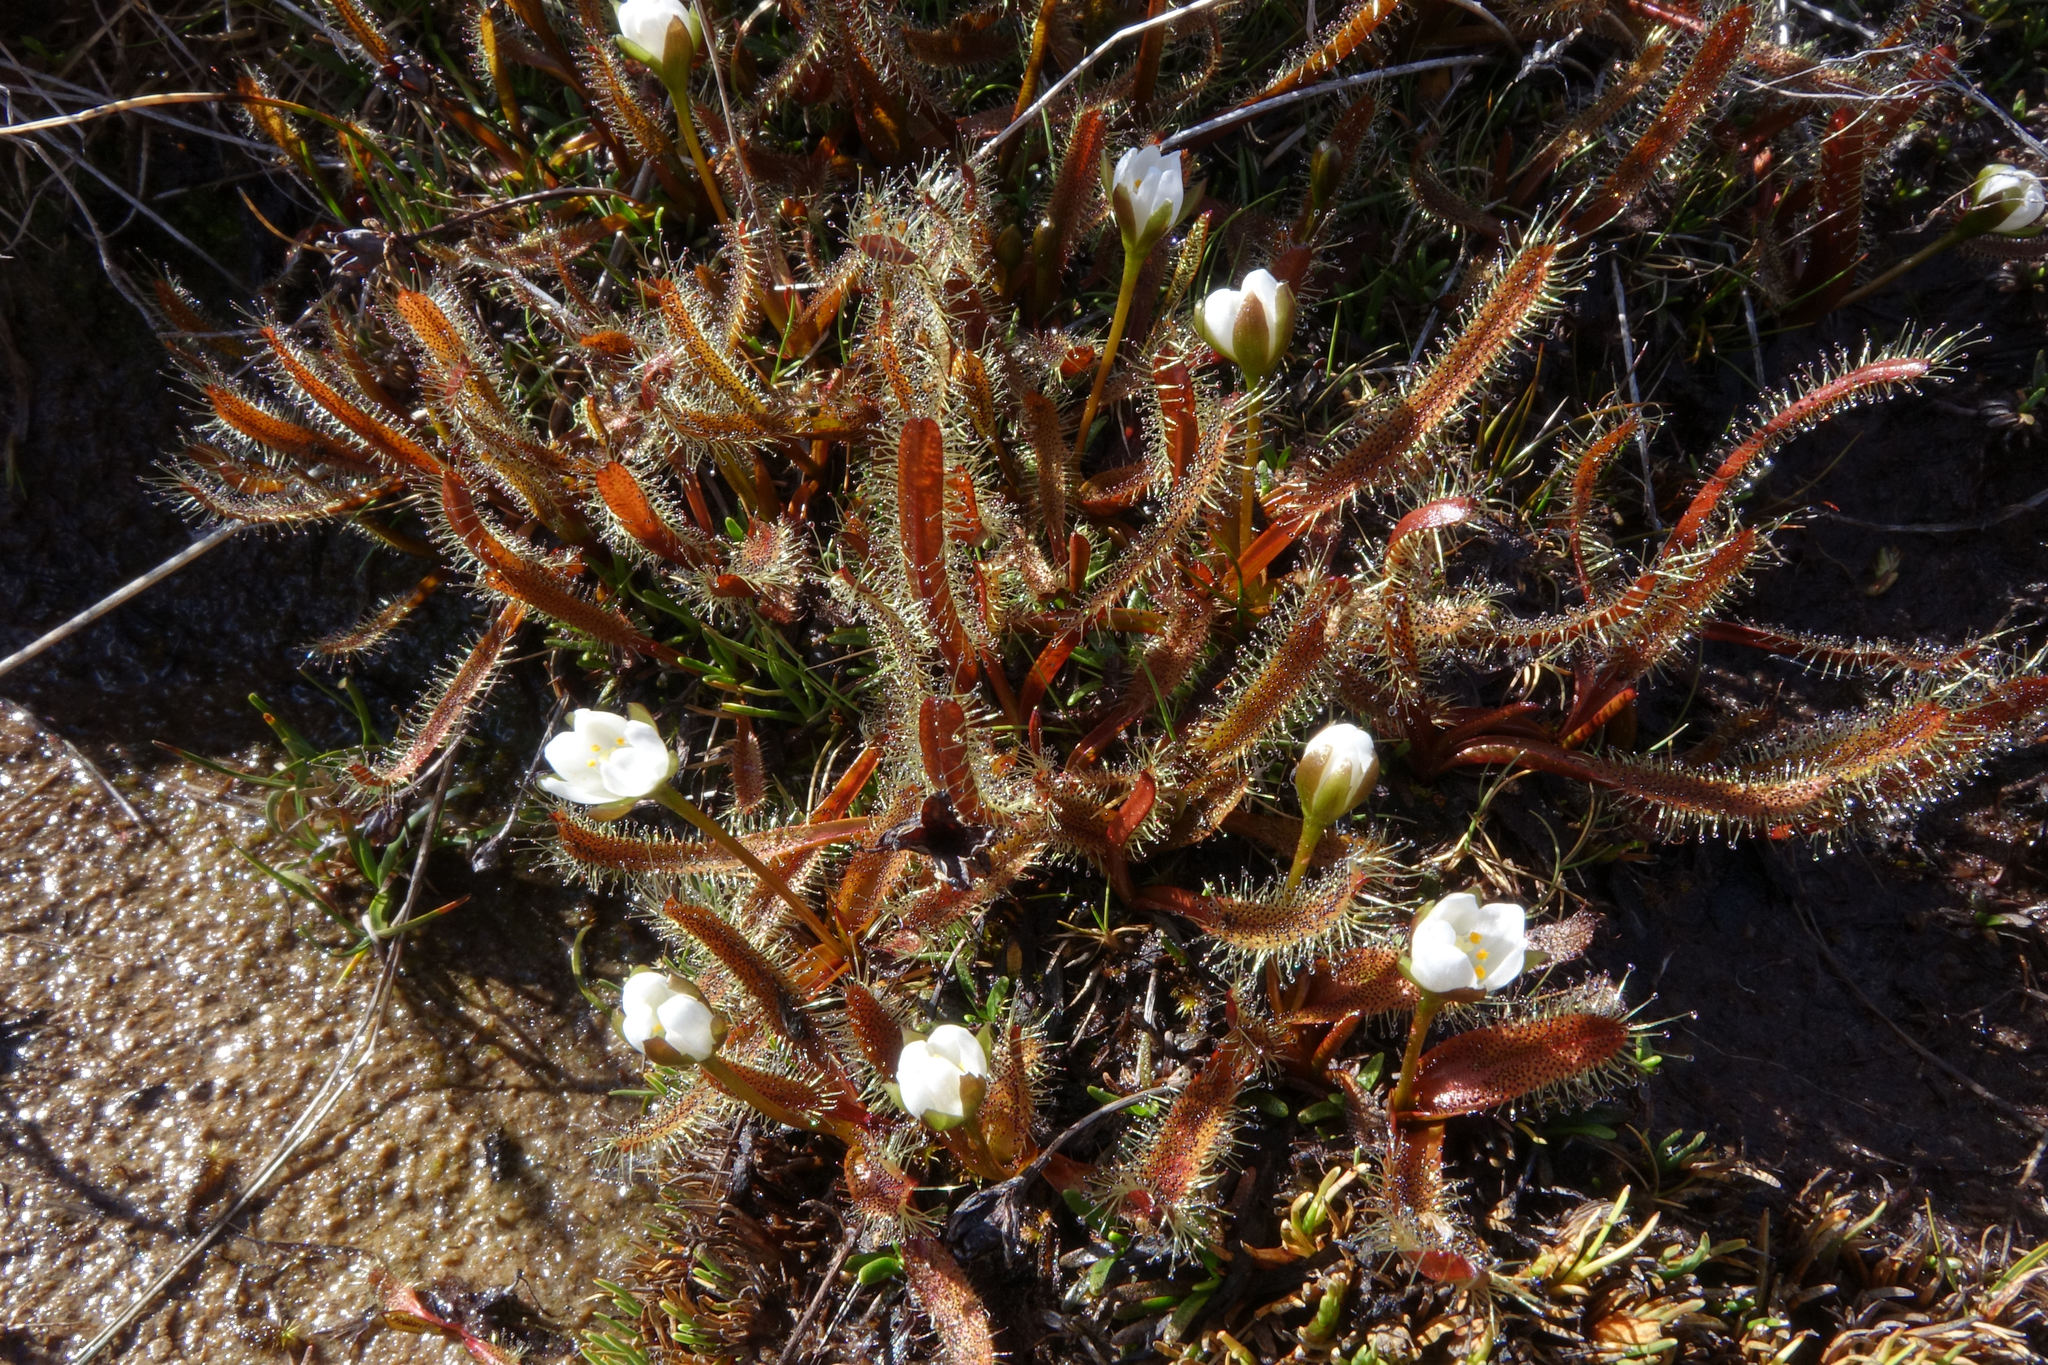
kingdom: Plantae
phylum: Tracheophyta
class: Magnoliopsida
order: Caryophyllales
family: Droseraceae
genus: Drosera
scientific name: Drosera arcturi
